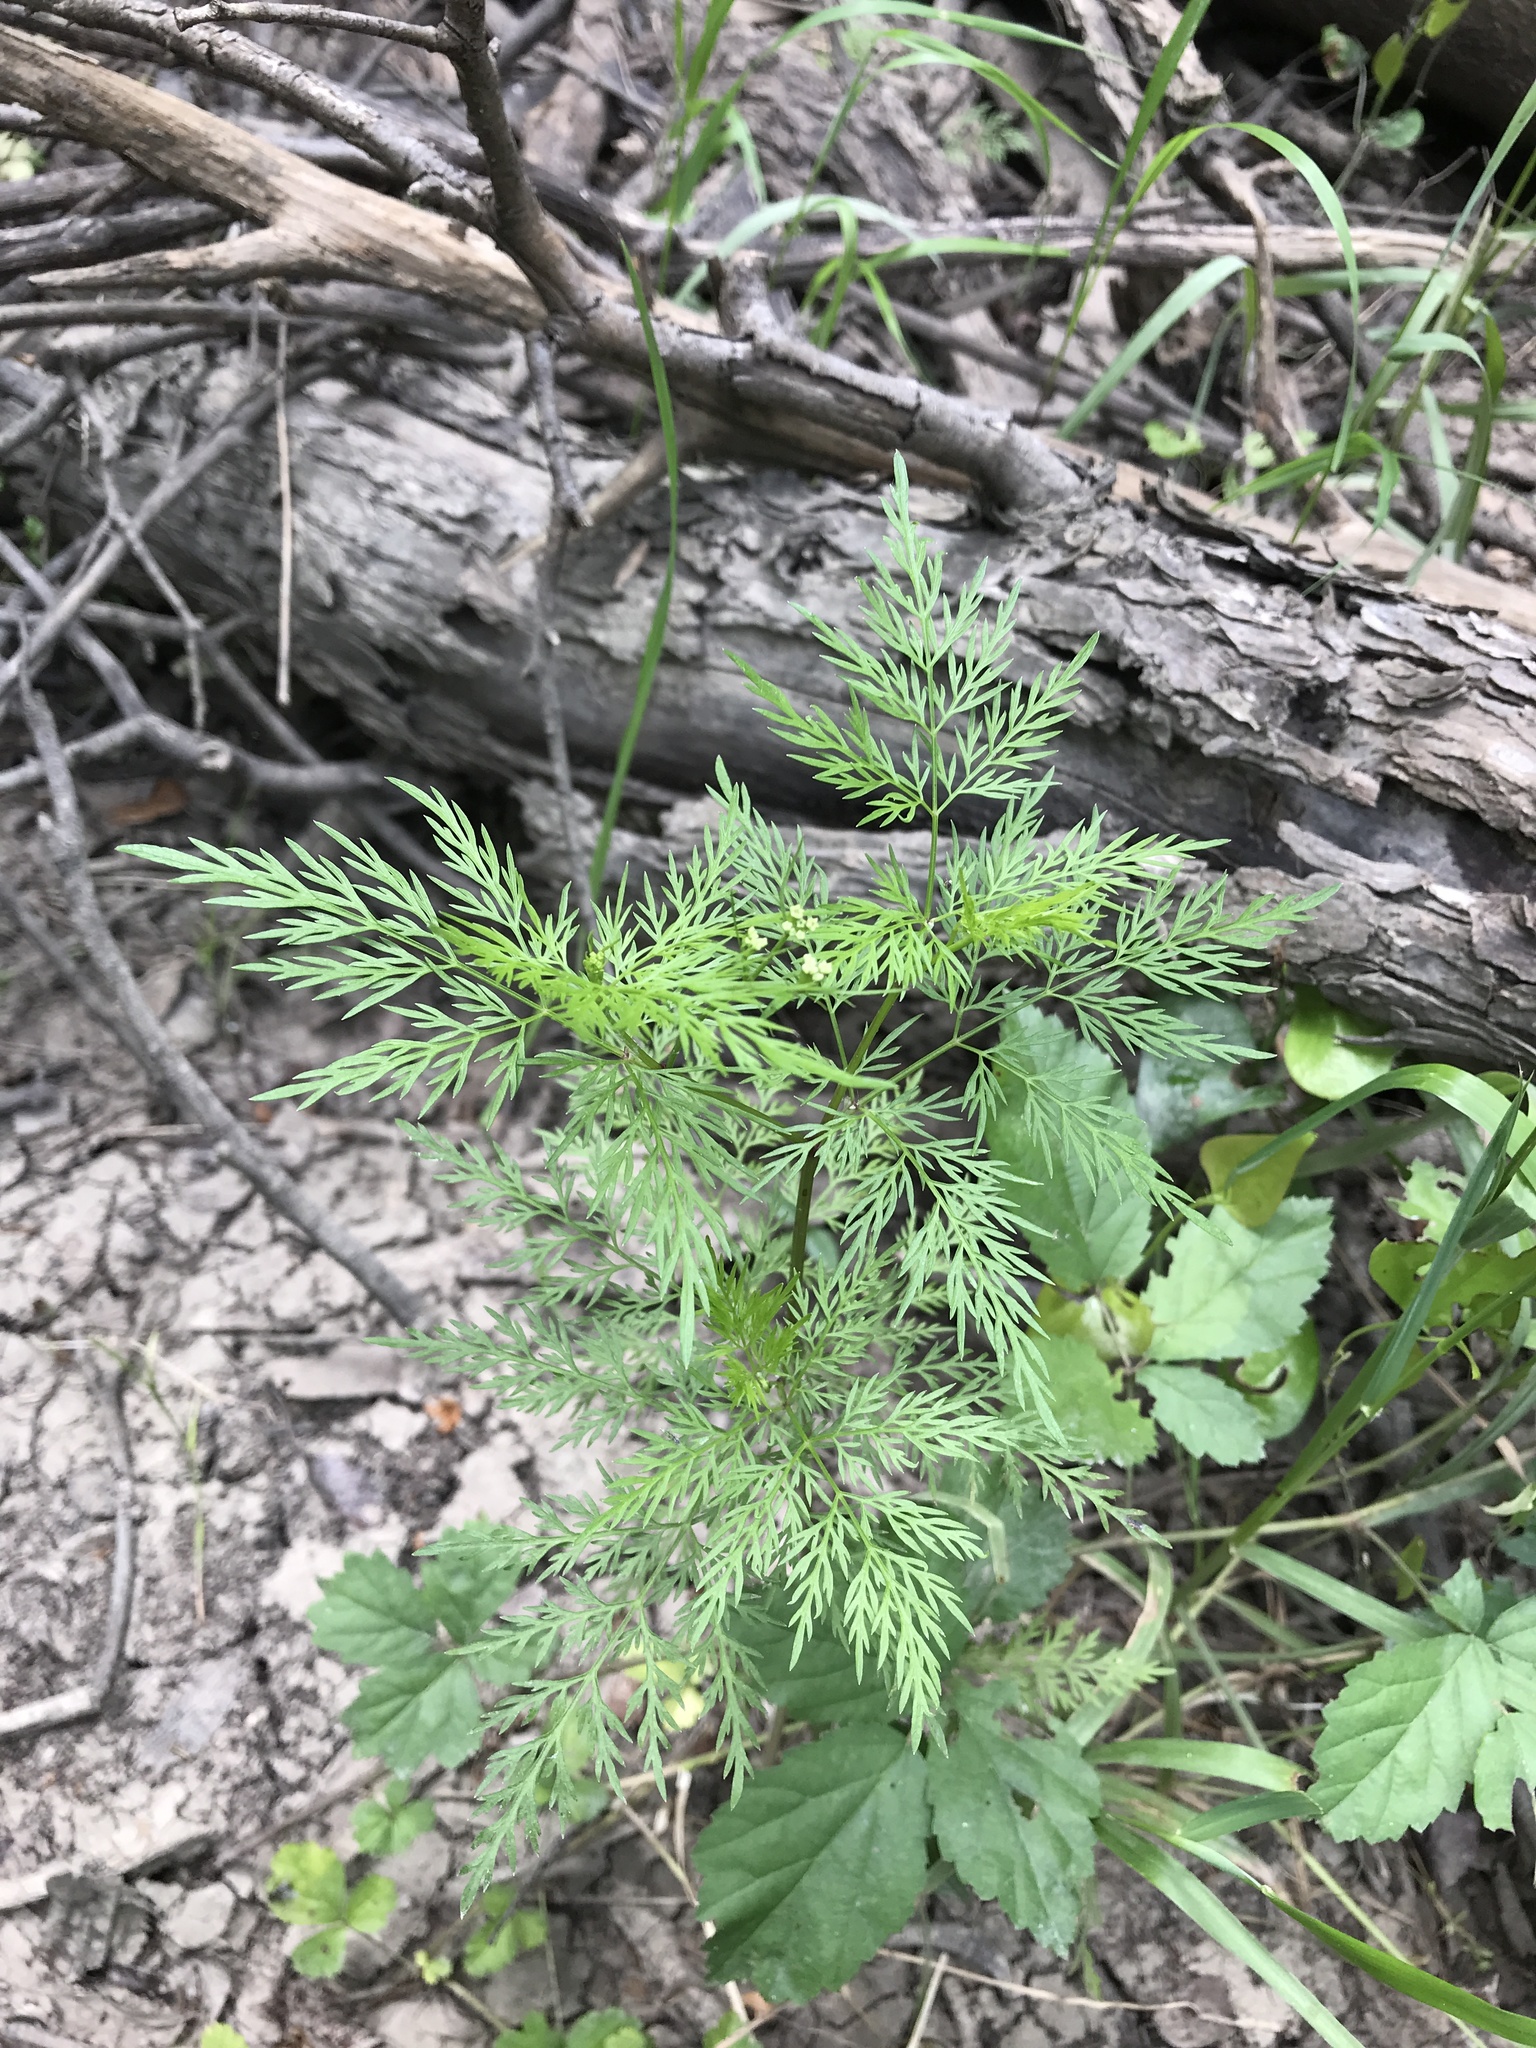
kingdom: Plantae
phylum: Tracheophyta
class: Magnoliopsida
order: Apiales
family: Apiaceae
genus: Trepocarpus
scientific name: Trepocarpus aethusae
